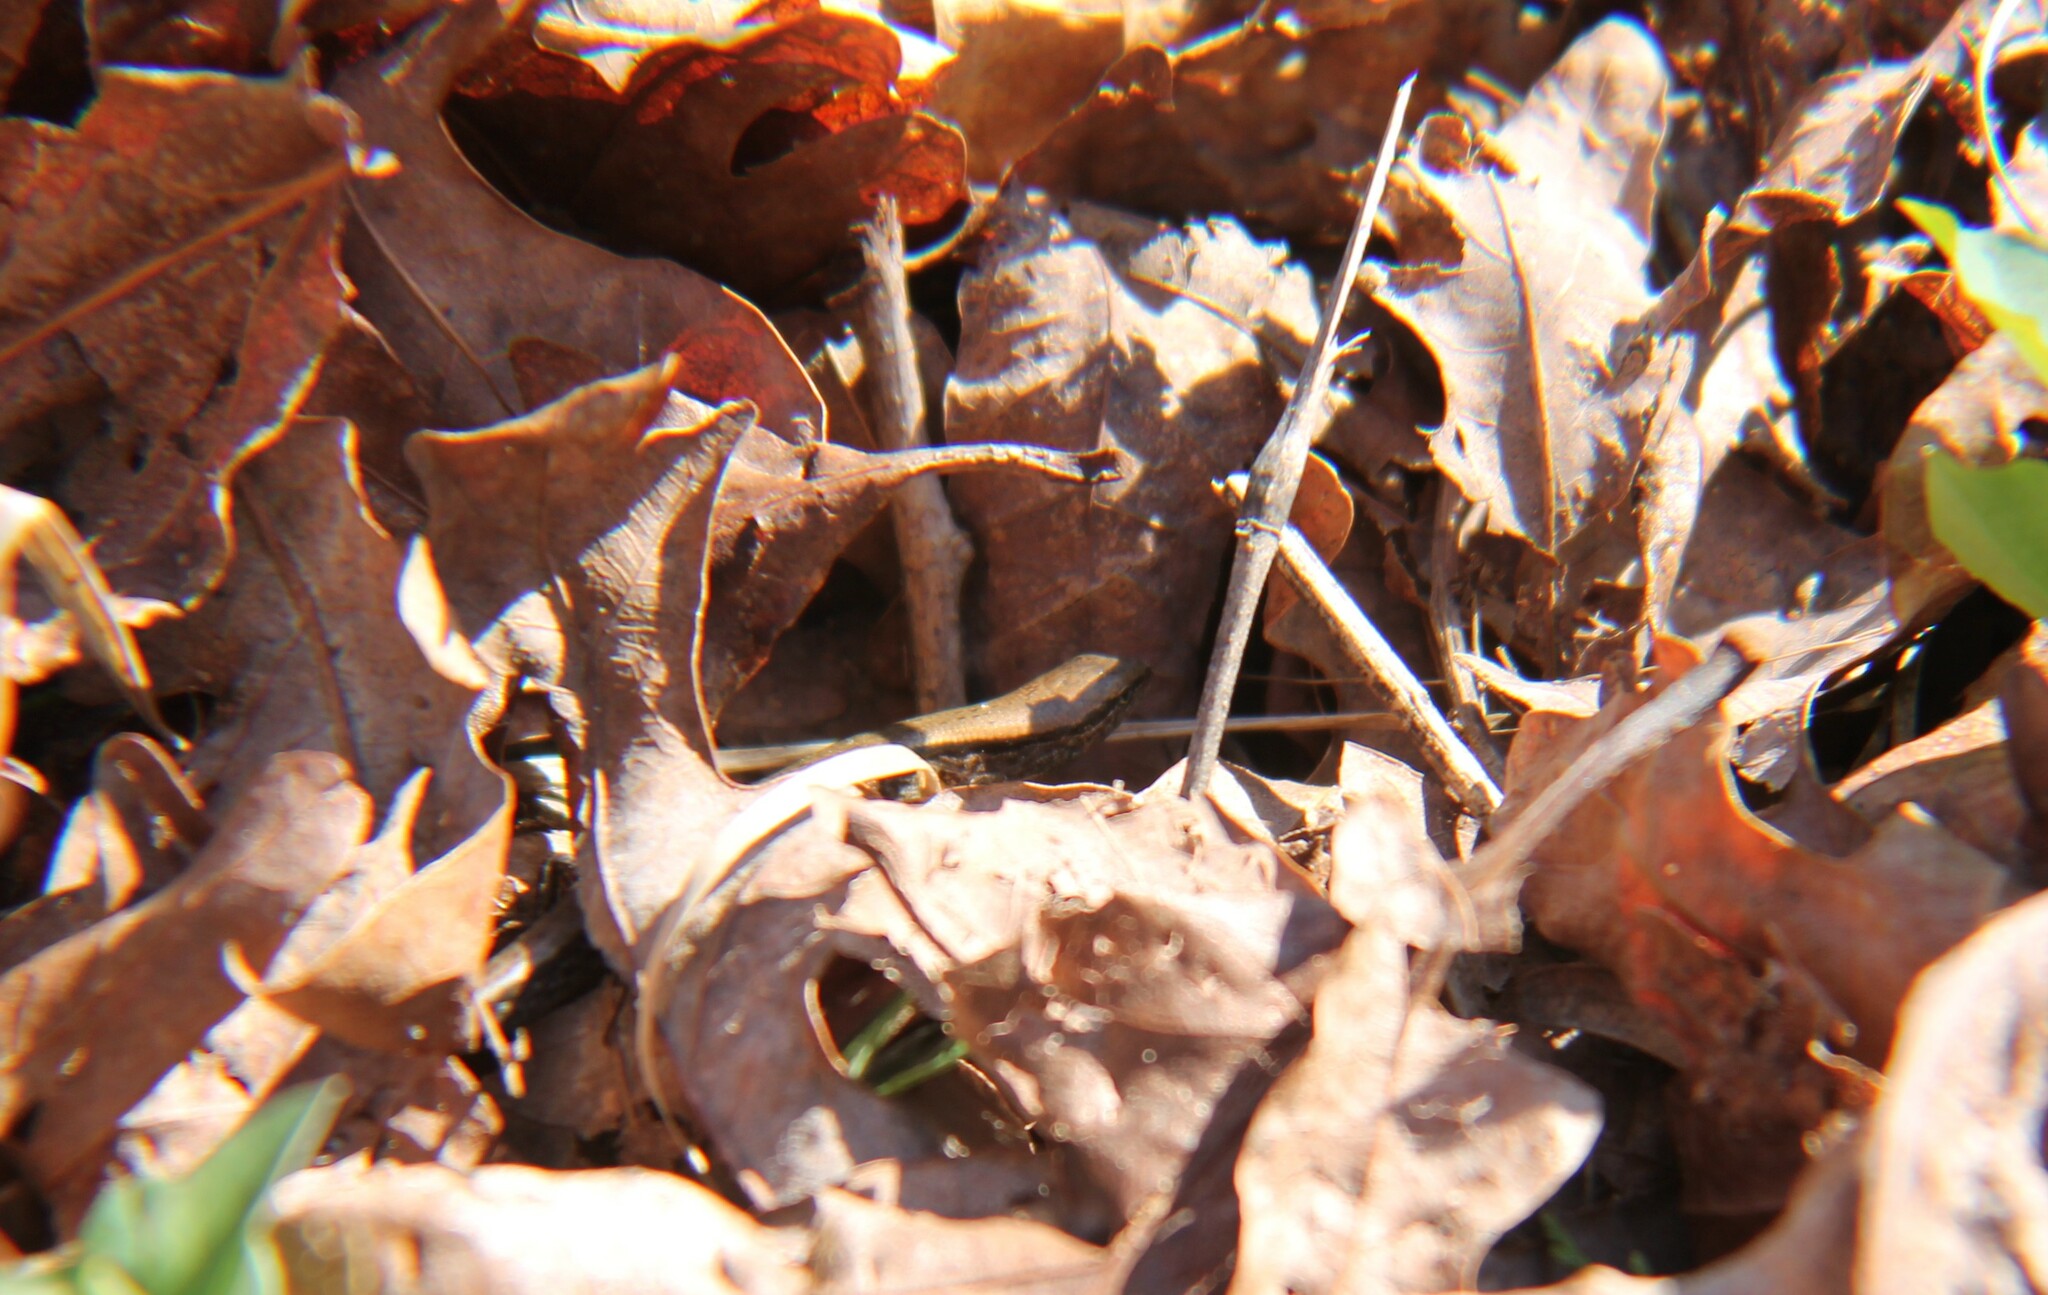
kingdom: Animalia
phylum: Chordata
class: Squamata
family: Scincidae
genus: Scincella
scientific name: Scincella lateralis
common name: Ground skink
